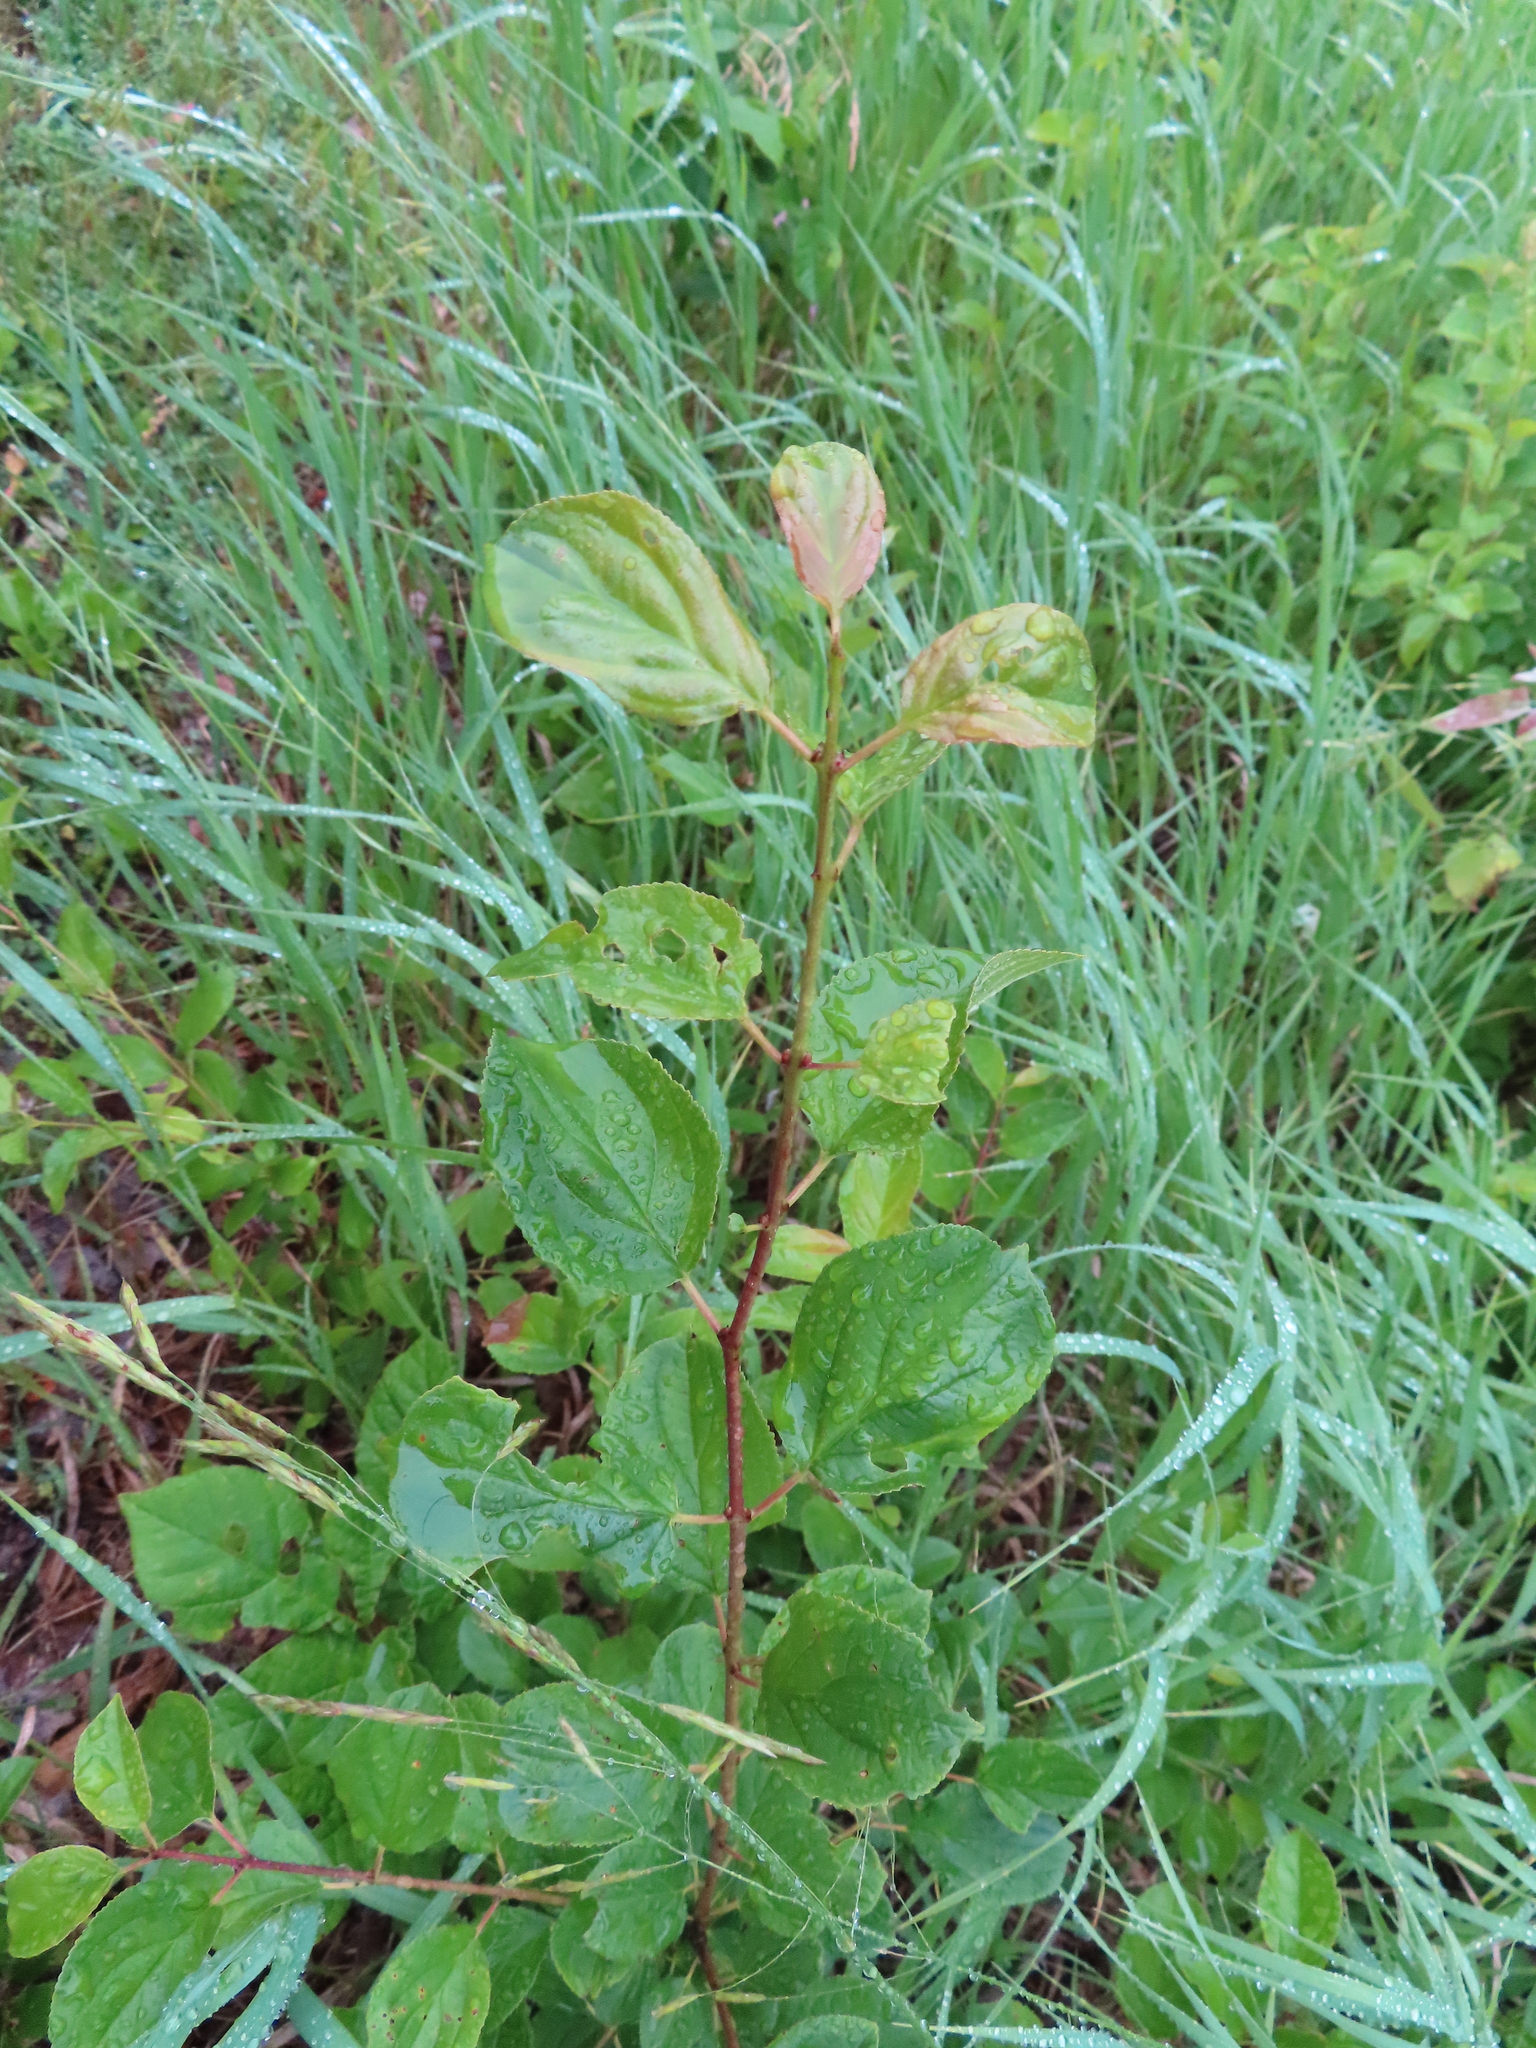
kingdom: Plantae
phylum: Tracheophyta
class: Magnoliopsida
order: Rosales
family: Rhamnaceae
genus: Rhamnus
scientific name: Rhamnus cathartica
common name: Common buckthorn
